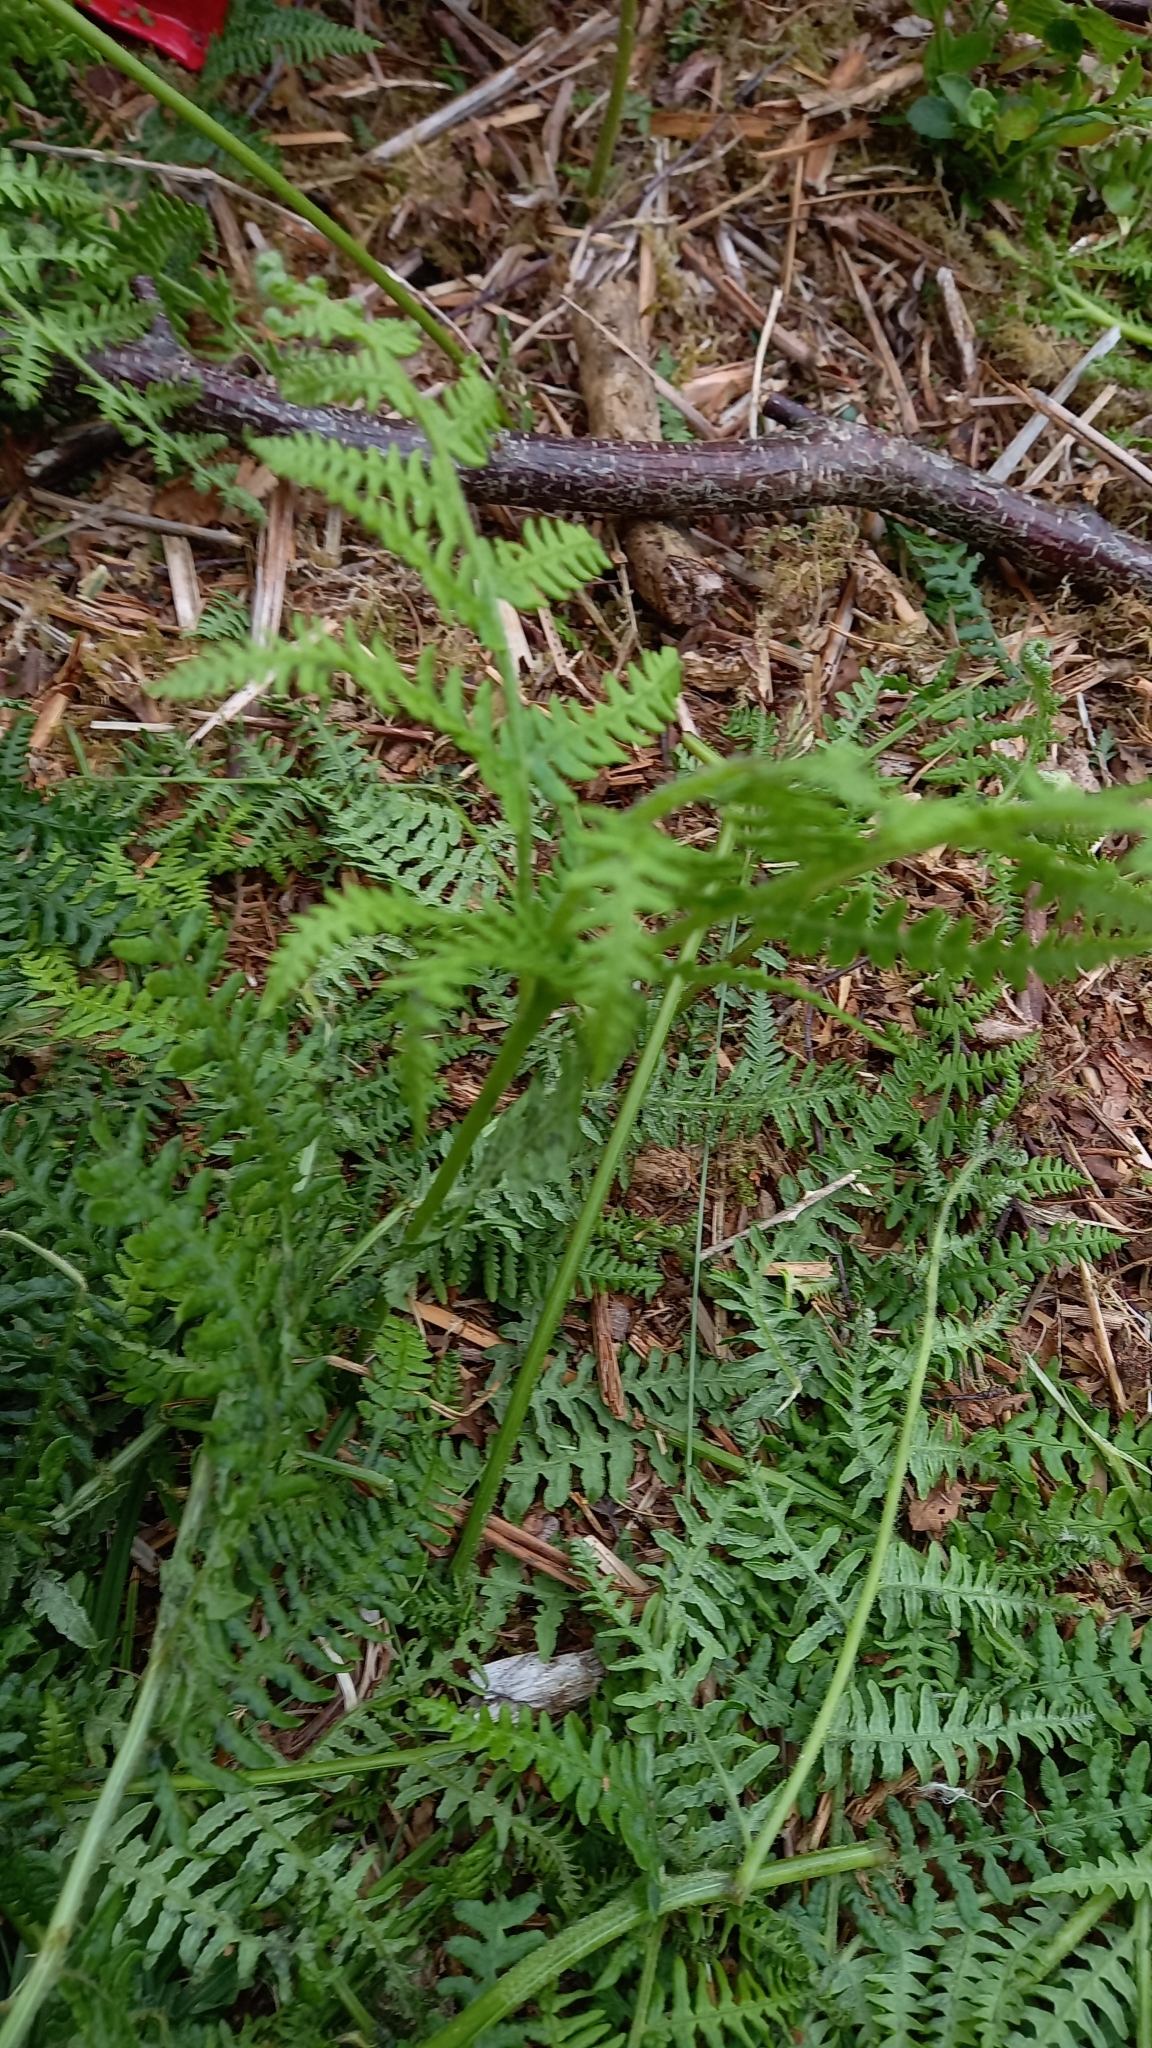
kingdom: Plantae
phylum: Tracheophyta
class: Polypodiopsida
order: Polypodiales
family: Dennstaedtiaceae
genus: Pteridium
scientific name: Pteridium aquilinum
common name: Bracken
